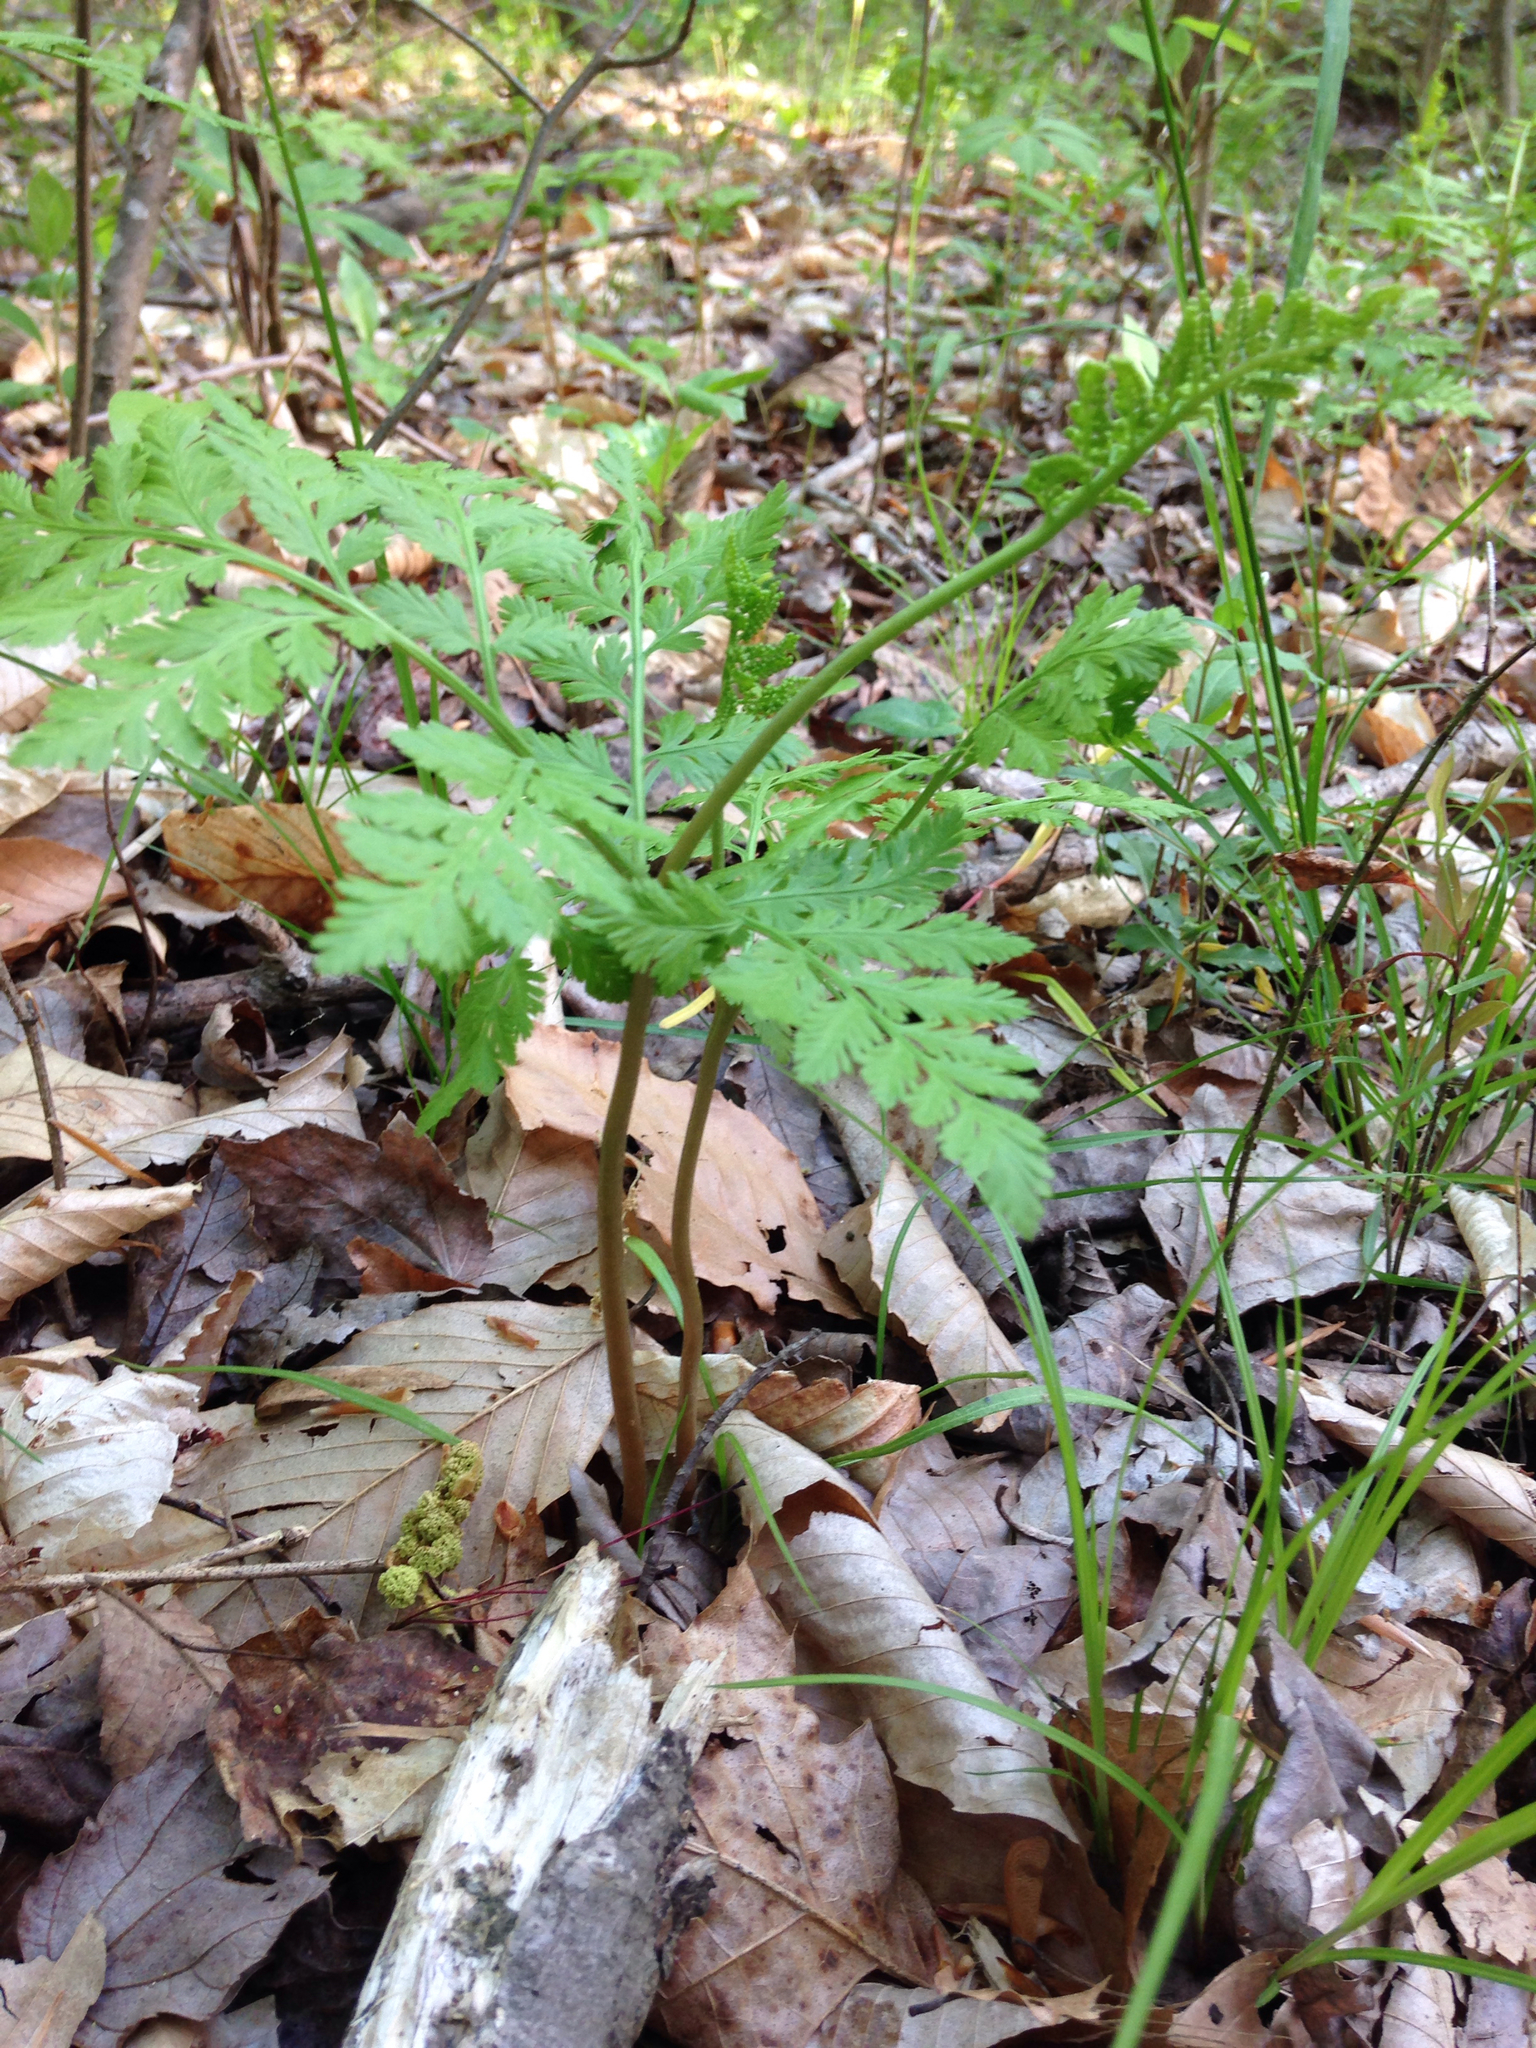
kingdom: Plantae
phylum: Tracheophyta
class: Polypodiopsida
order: Ophioglossales
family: Ophioglossaceae
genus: Botrypus
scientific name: Botrypus virginianus
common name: Common grapefern
